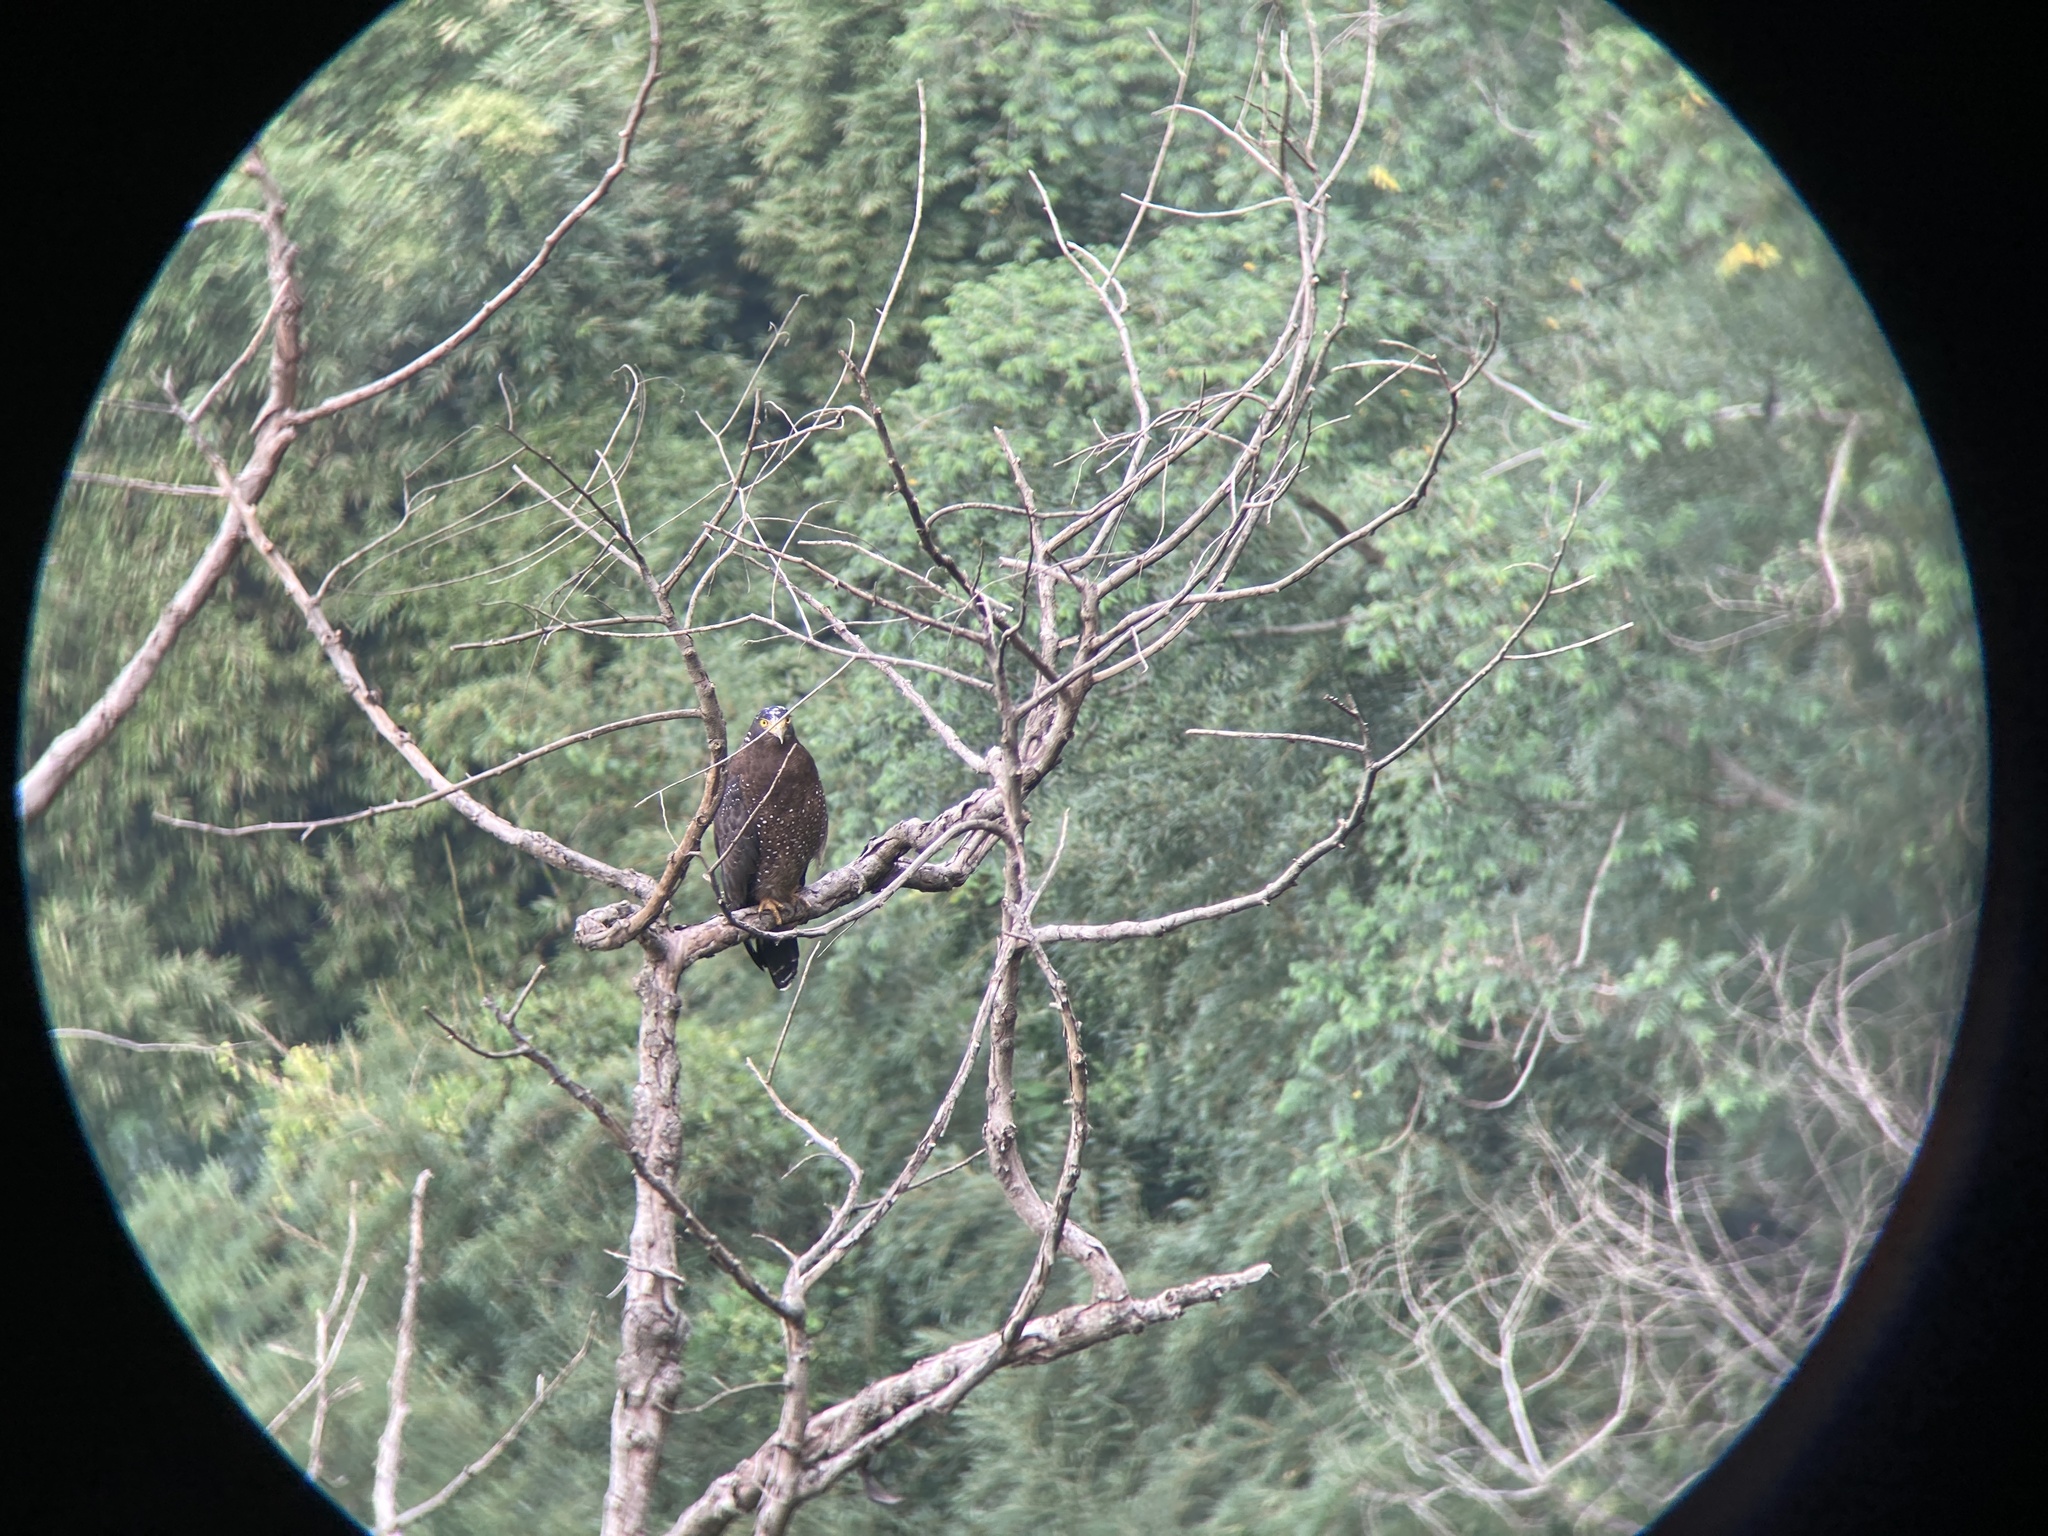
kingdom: Animalia
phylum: Chordata
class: Aves
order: Accipitriformes
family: Accipitridae
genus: Spilornis
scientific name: Spilornis cheela
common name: Crested serpent eagle
